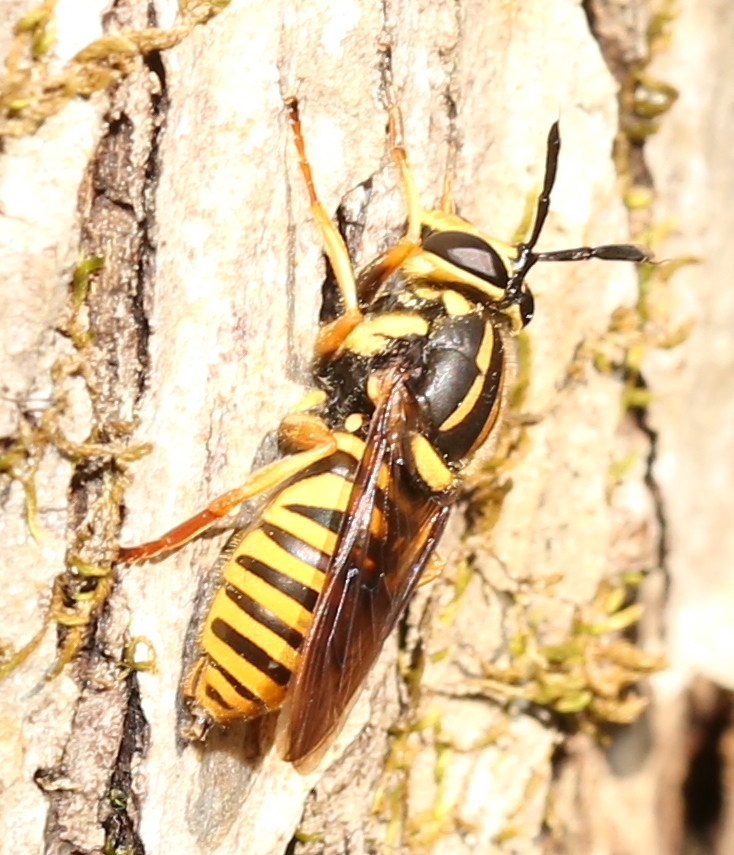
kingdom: Animalia
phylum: Arthropoda
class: Insecta
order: Diptera
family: Syrphidae
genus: Sphecomyia
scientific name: Sphecomyia vittata
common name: Long-horned yellowjacket fly
